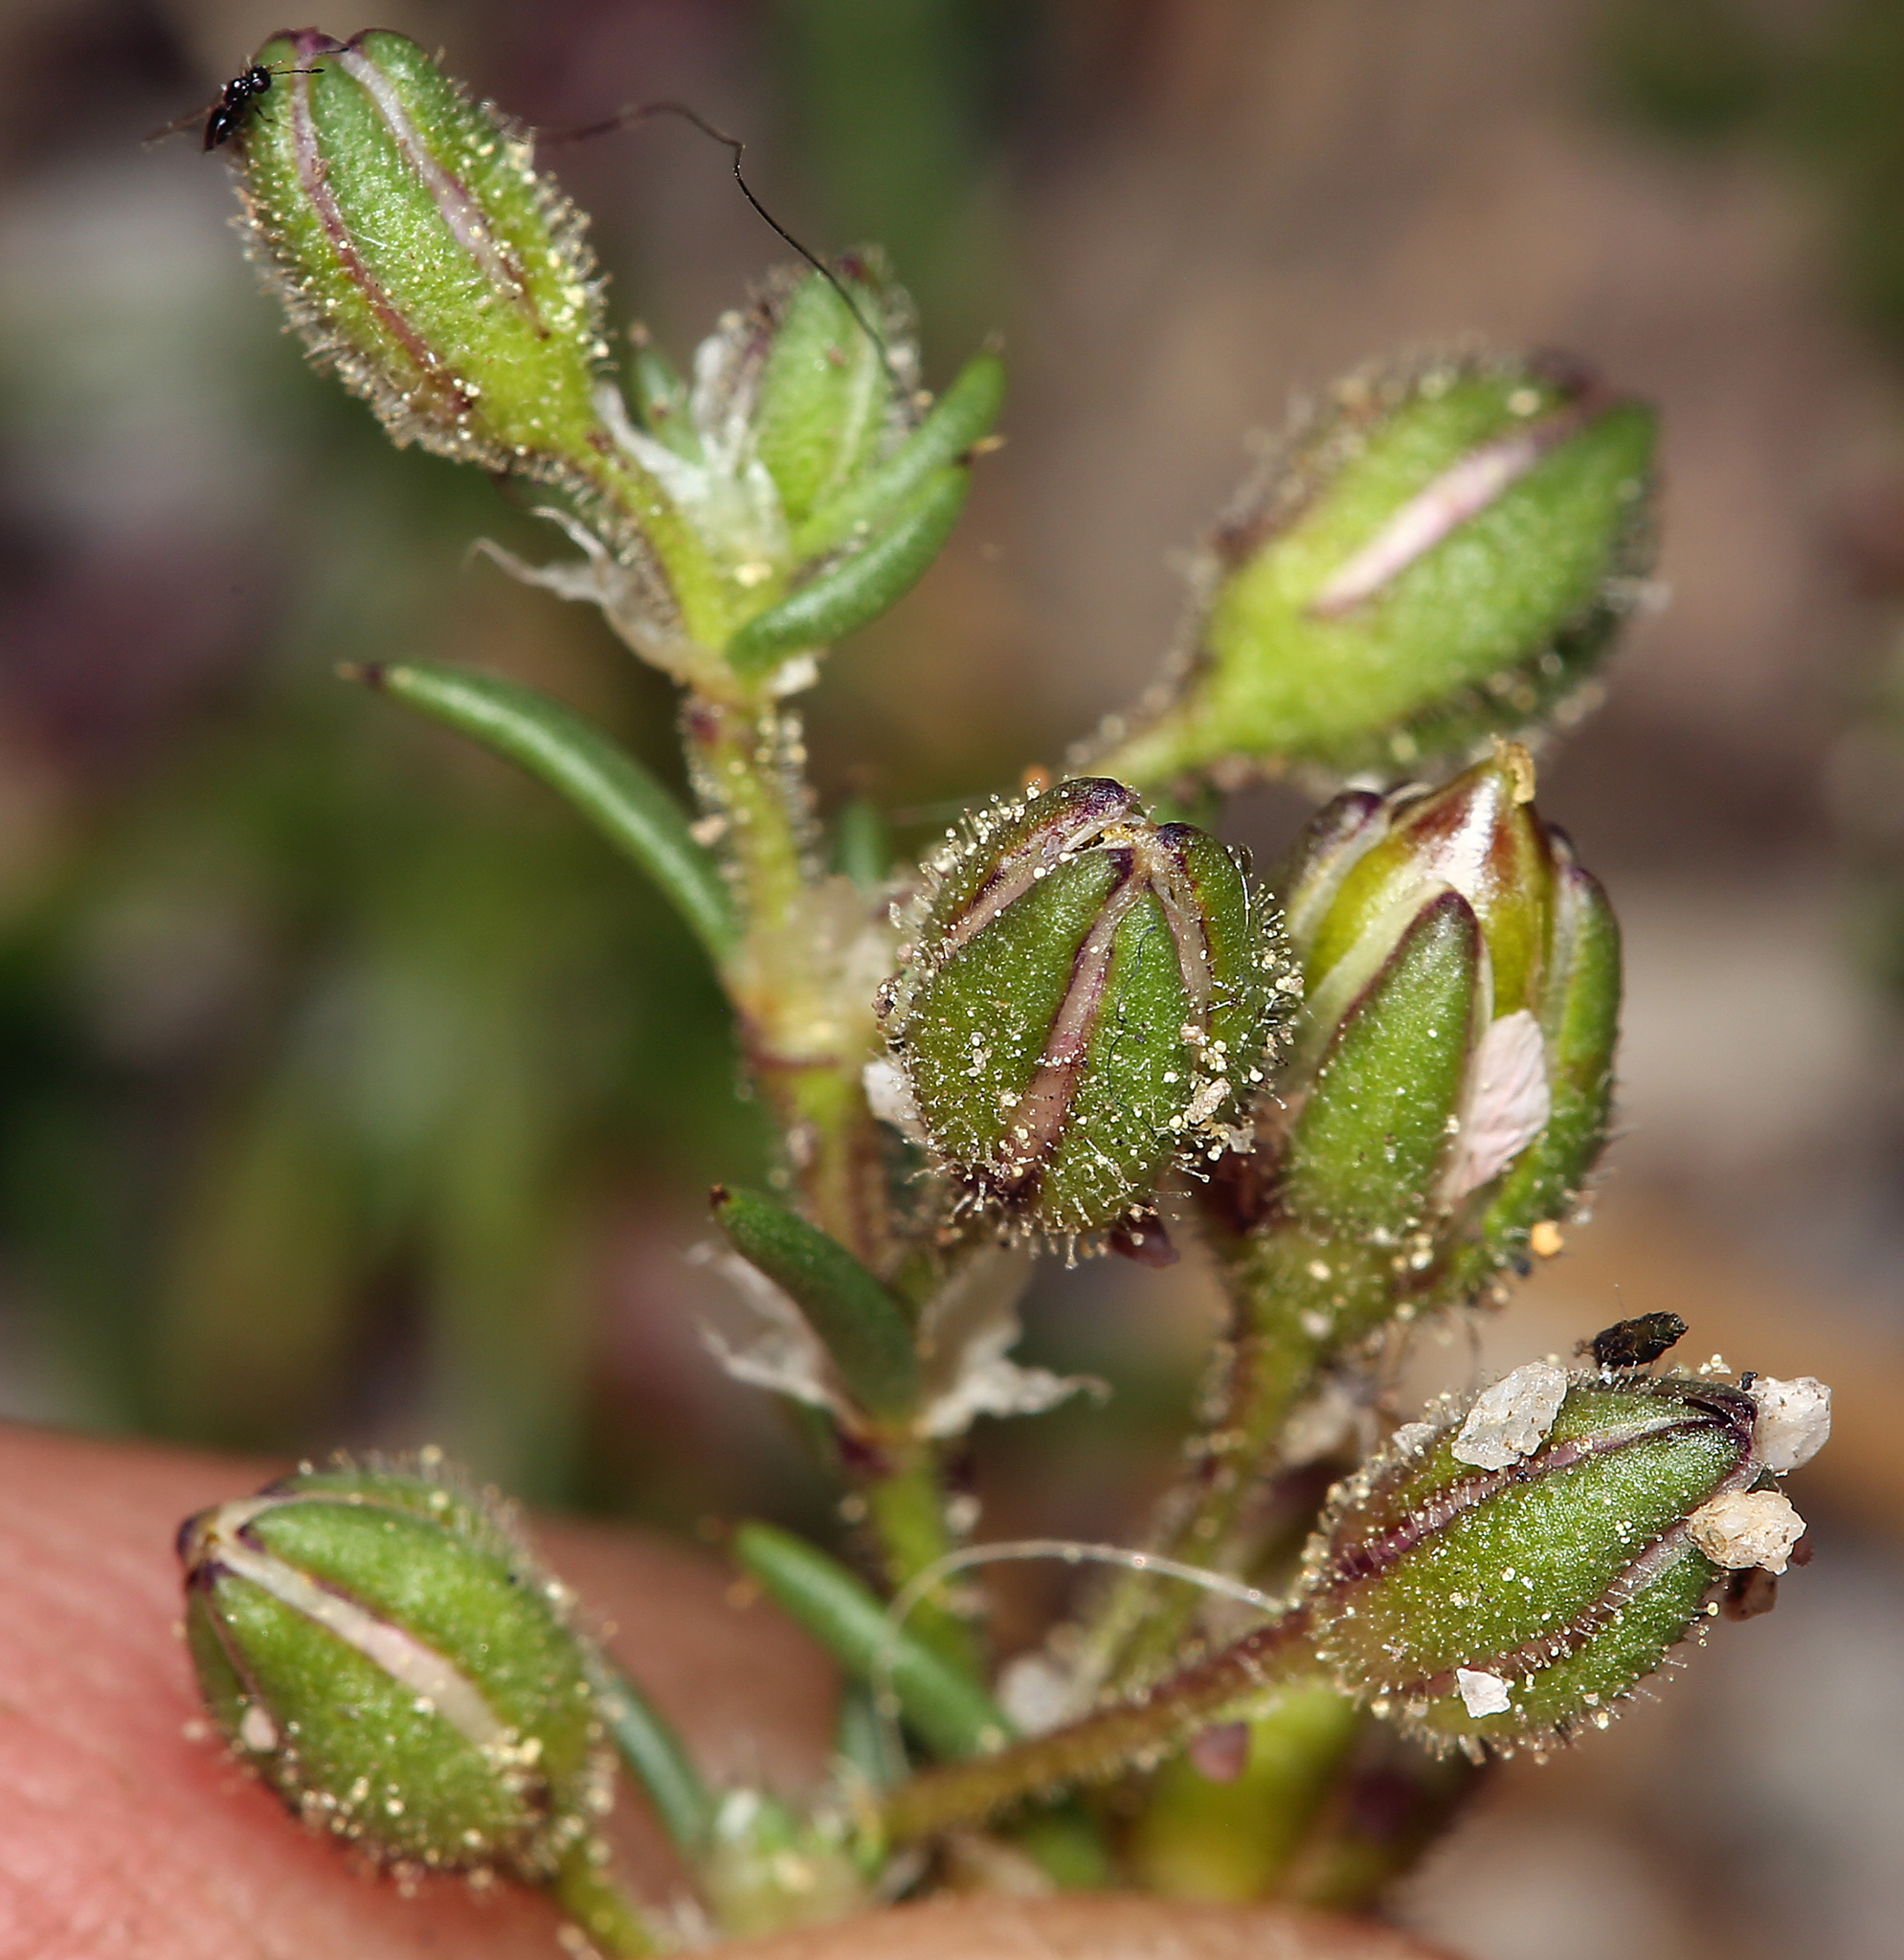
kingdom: Plantae
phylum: Tracheophyta
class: Magnoliopsida
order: Caryophyllales
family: Caryophyllaceae
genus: Spergularia
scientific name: Spergularia rubra
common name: Red sand-spurrey
